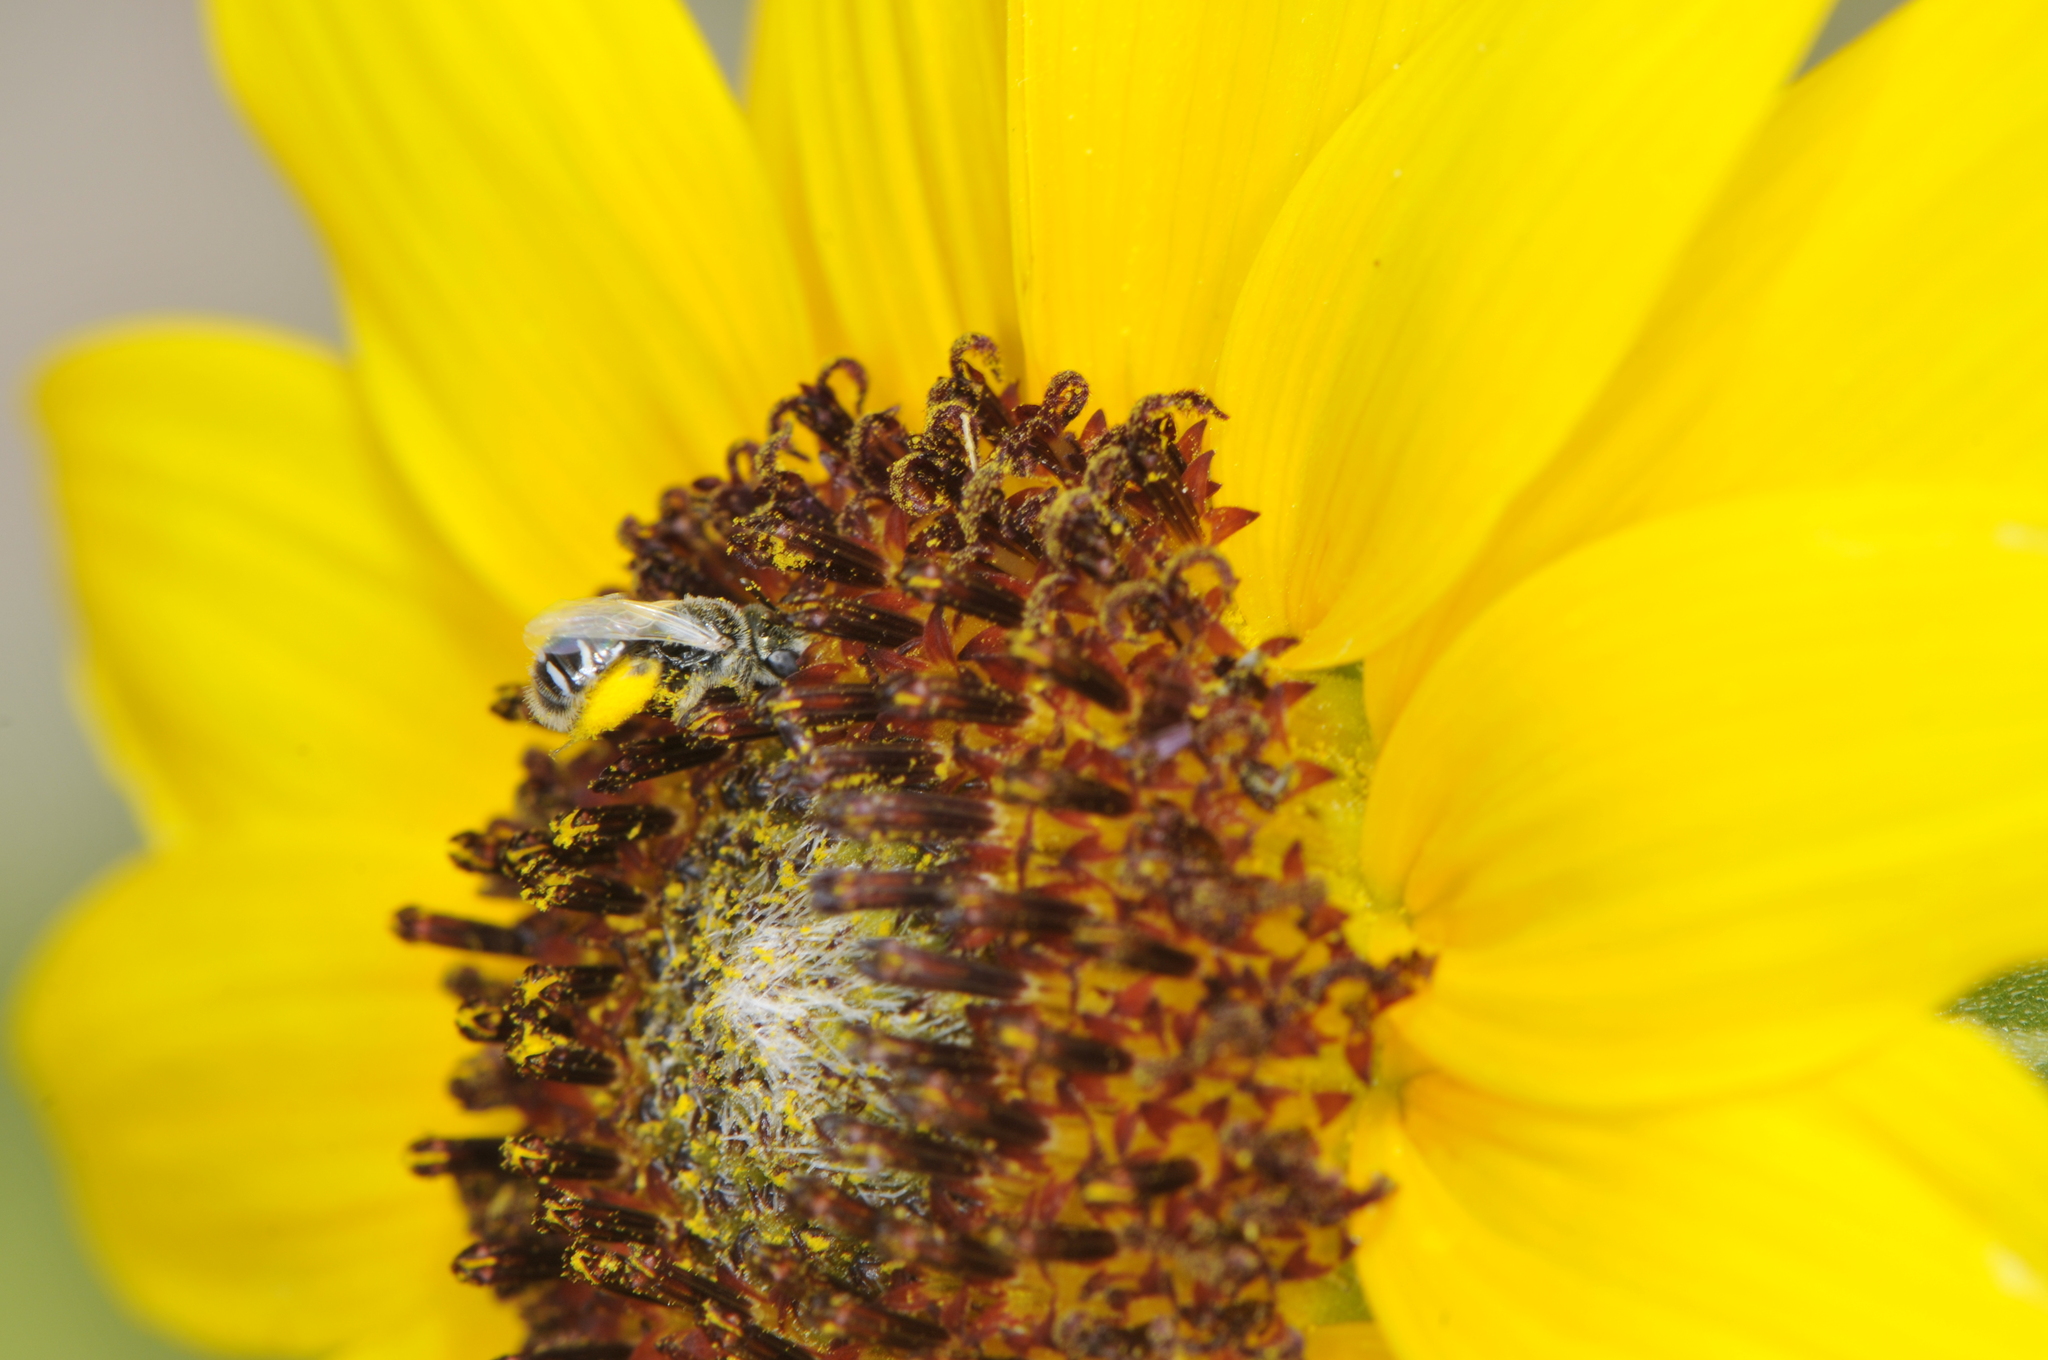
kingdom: Animalia
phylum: Arthropoda
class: Insecta
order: Hymenoptera
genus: Pentaperdita
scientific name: Pentaperdita
